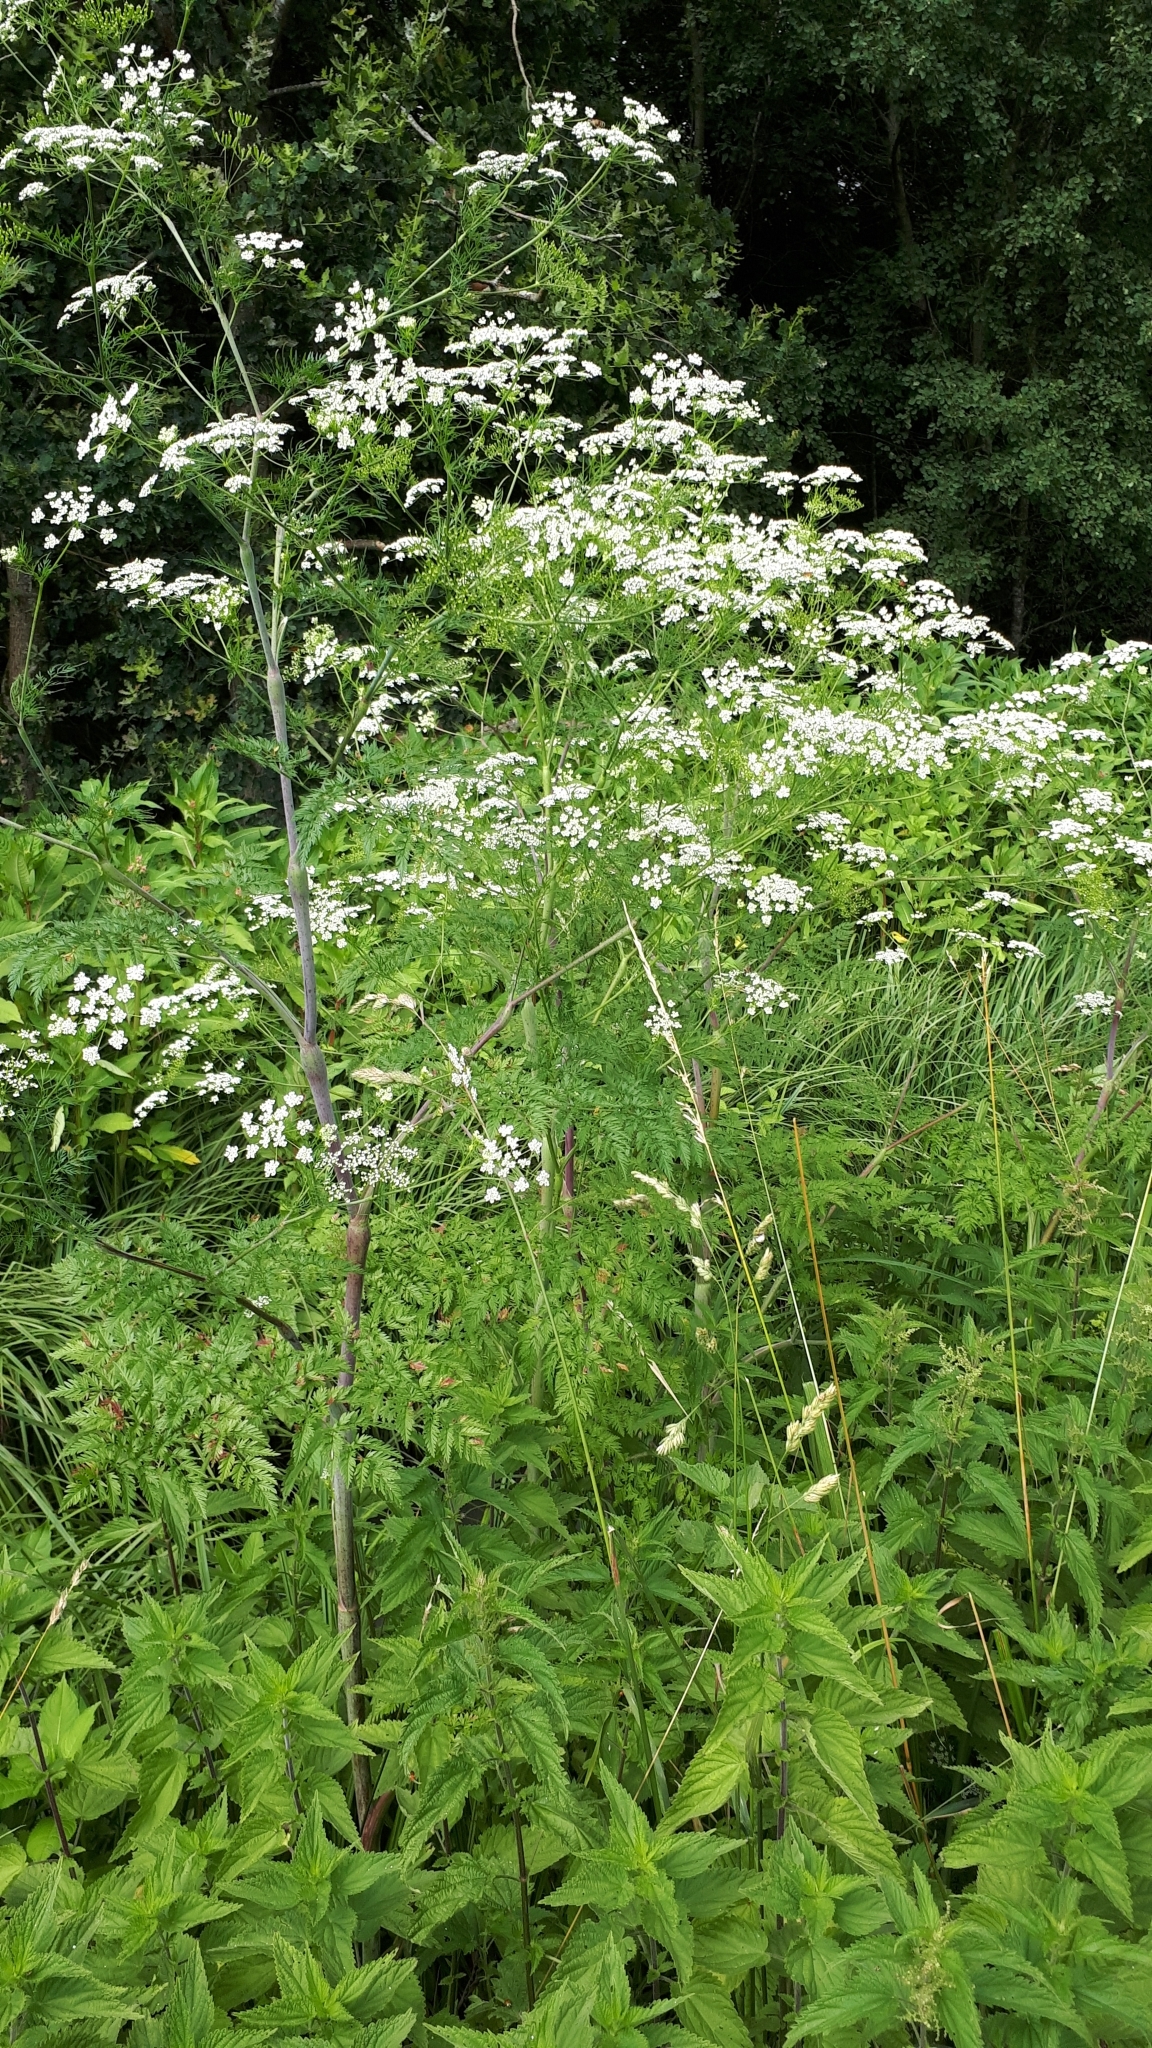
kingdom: Plantae
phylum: Tracheophyta
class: Magnoliopsida
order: Apiales
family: Apiaceae
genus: Chaerophyllum
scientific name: Chaerophyllum bulbosum
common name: Bulbous chervil
